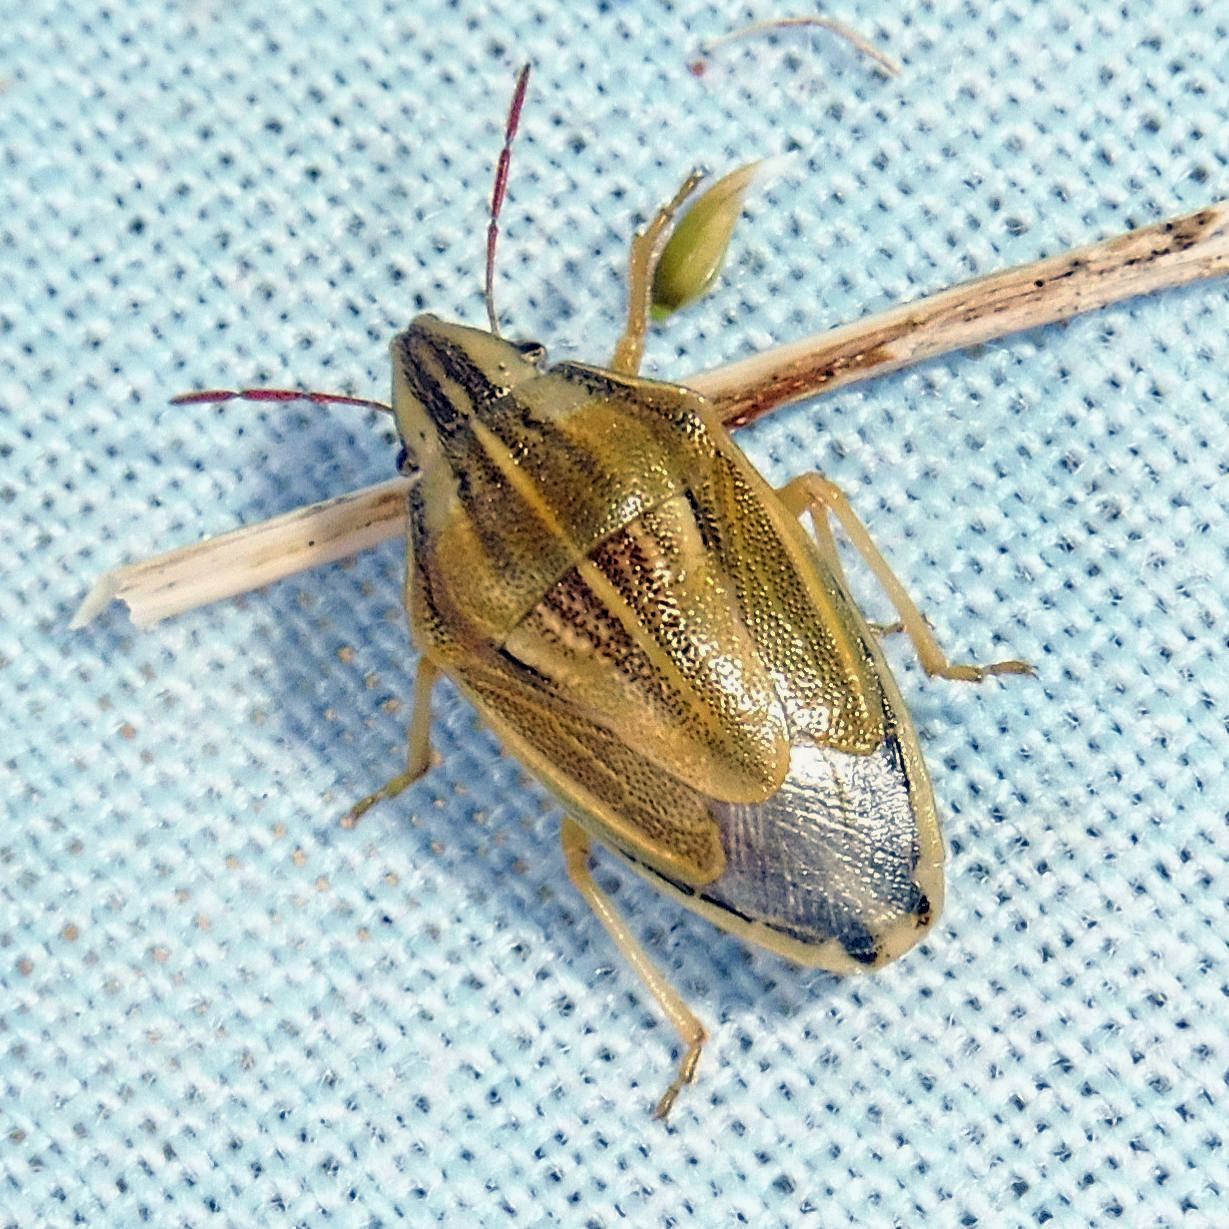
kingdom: Animalia
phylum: Arthropoda
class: Insecta
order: Hemiptera
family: Pentatomidae
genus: Aelia
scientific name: Aelia acuminata
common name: Bishop's mitre
